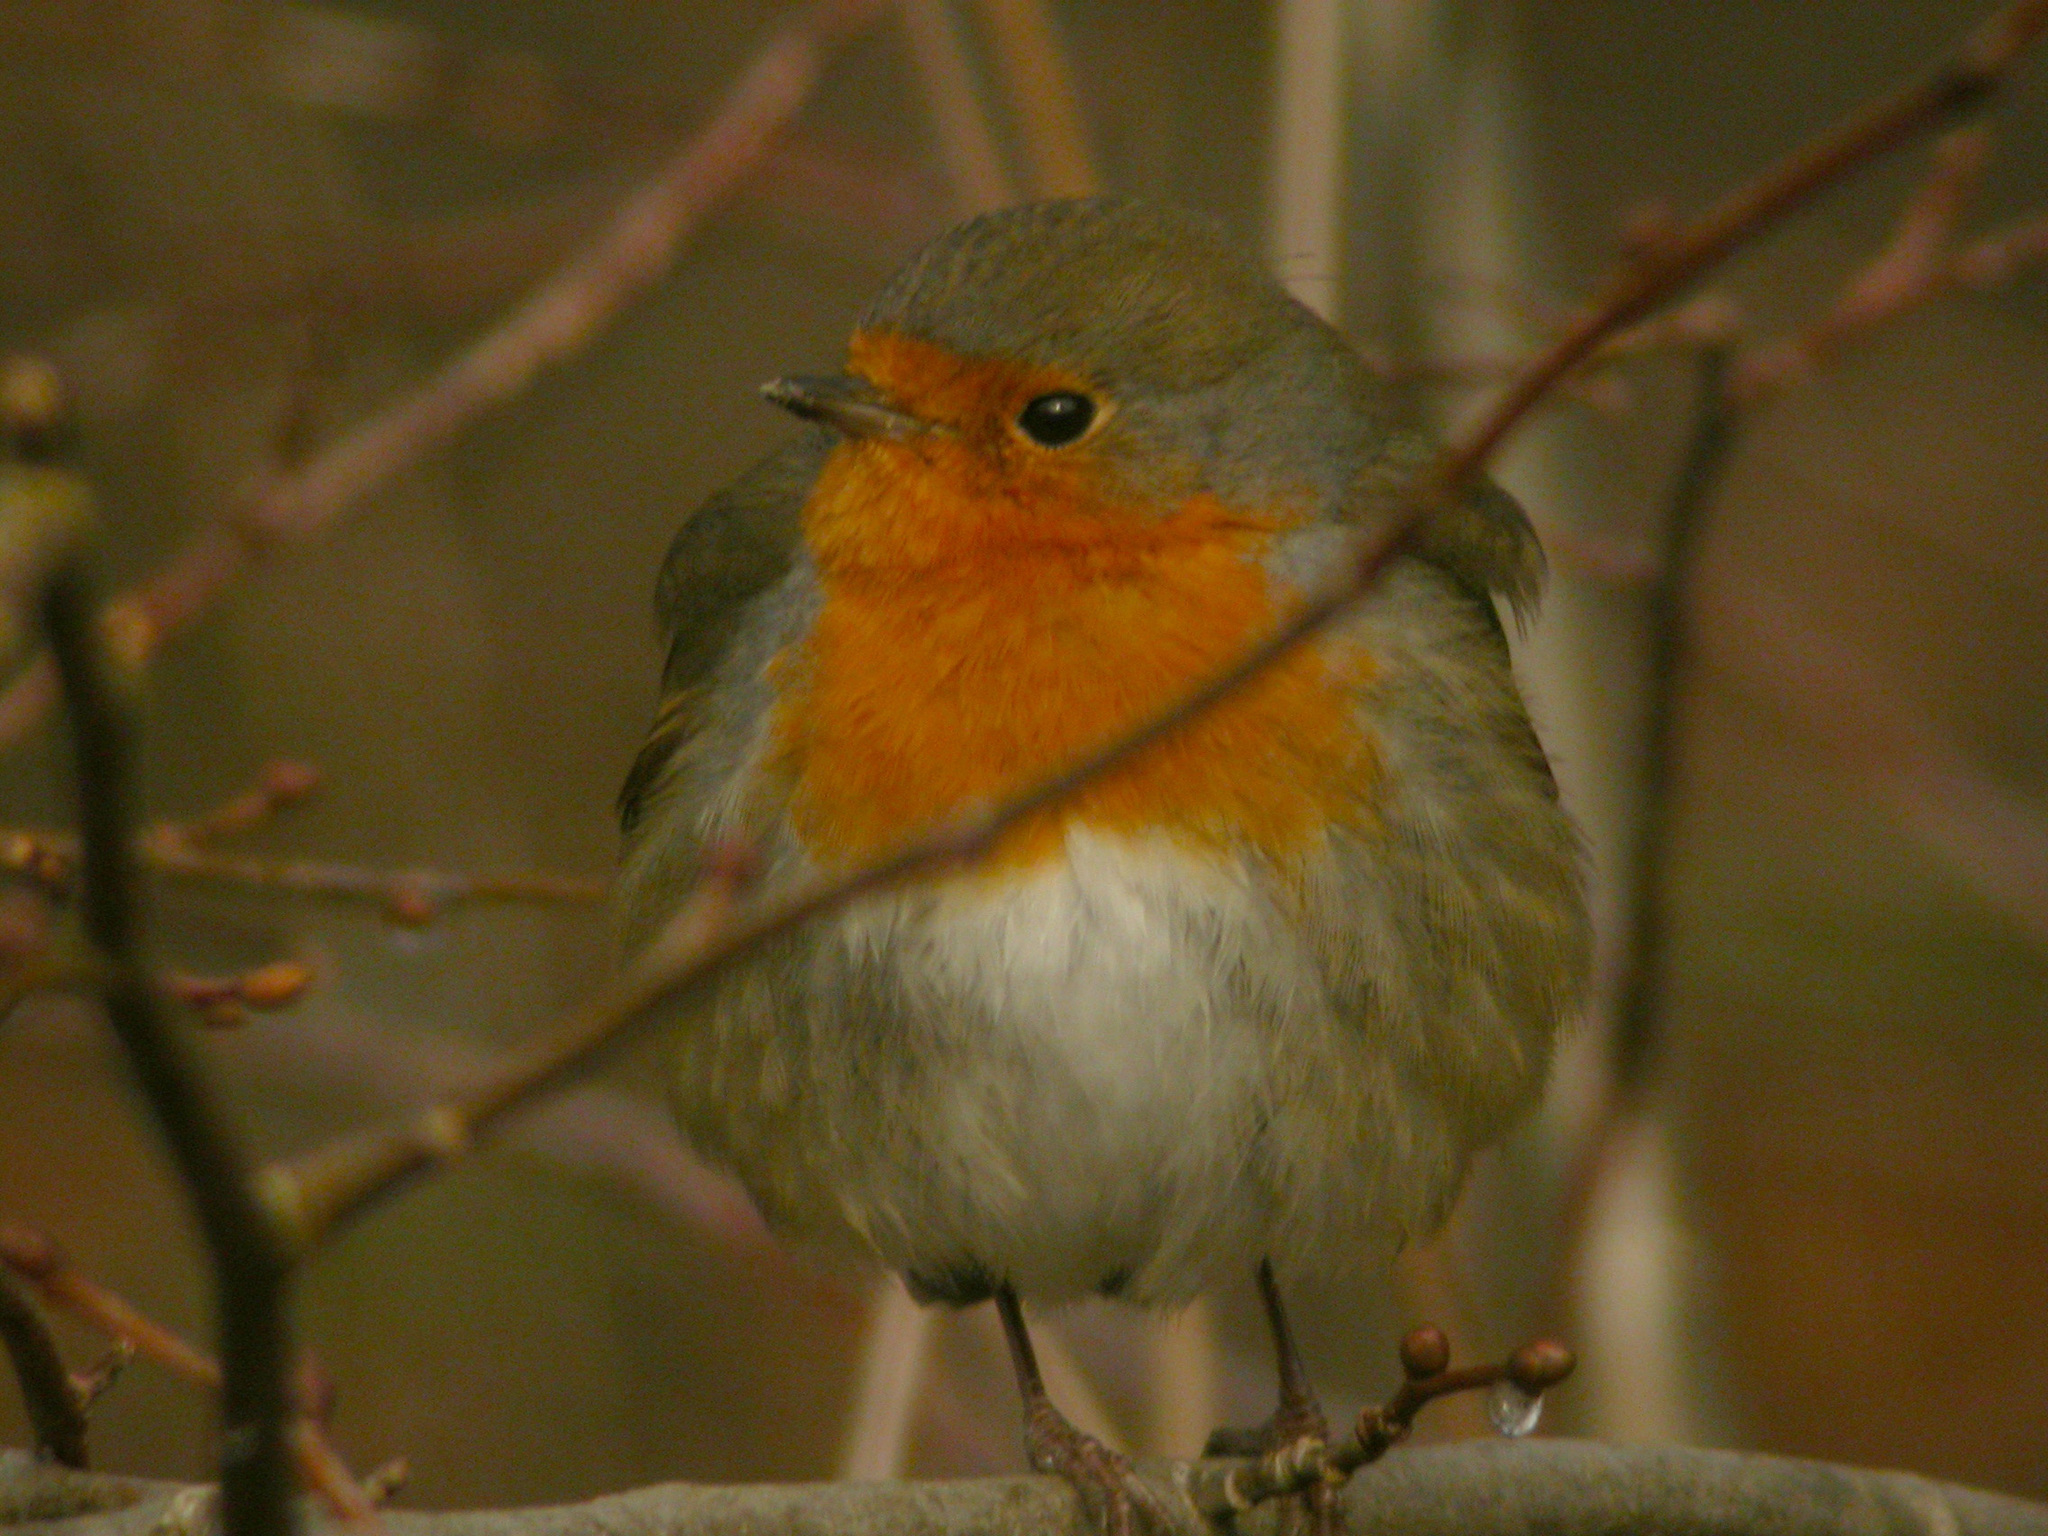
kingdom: Animalia
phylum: Chordata
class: Aves
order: Passeriformes
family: Muscicapidae
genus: Erithacus
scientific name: Erithacus rubecula
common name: European robin
